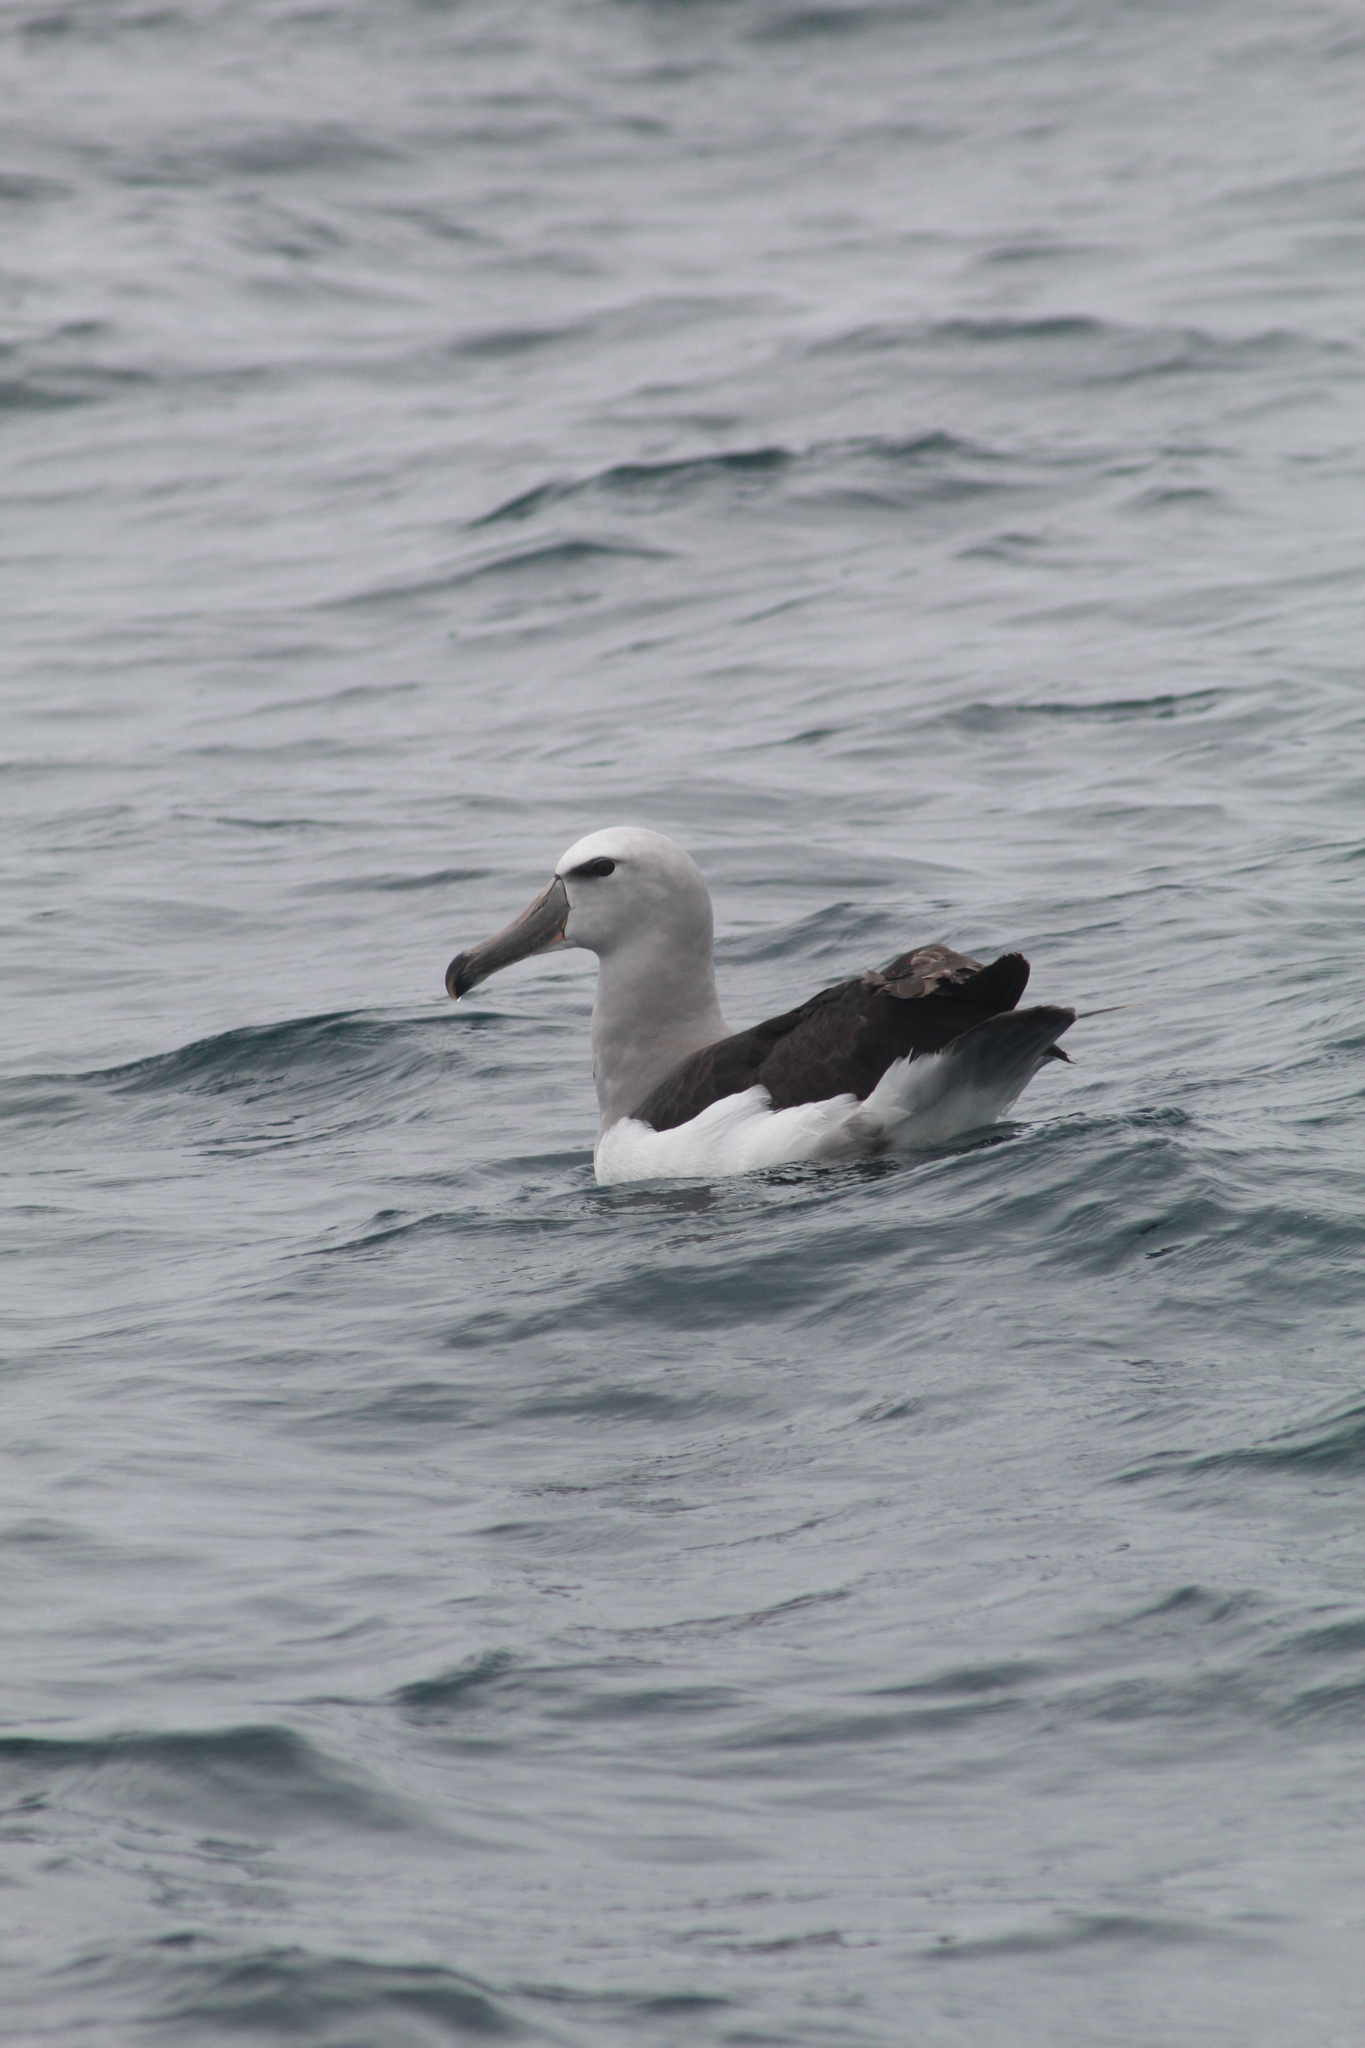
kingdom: Animalia
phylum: Chordata
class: Aves
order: Procellariiformes
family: Diomedeidae
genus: Thalassarche
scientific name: Thalassarche salvini
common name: Salvin's albatross
